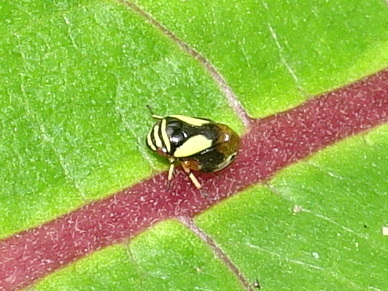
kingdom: Animalia
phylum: Arthropoda
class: Insecta
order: Hemiptera
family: Clastopteridae
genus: Clastoptera
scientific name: Clastoptera proteus
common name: Dogwood spittlebug
